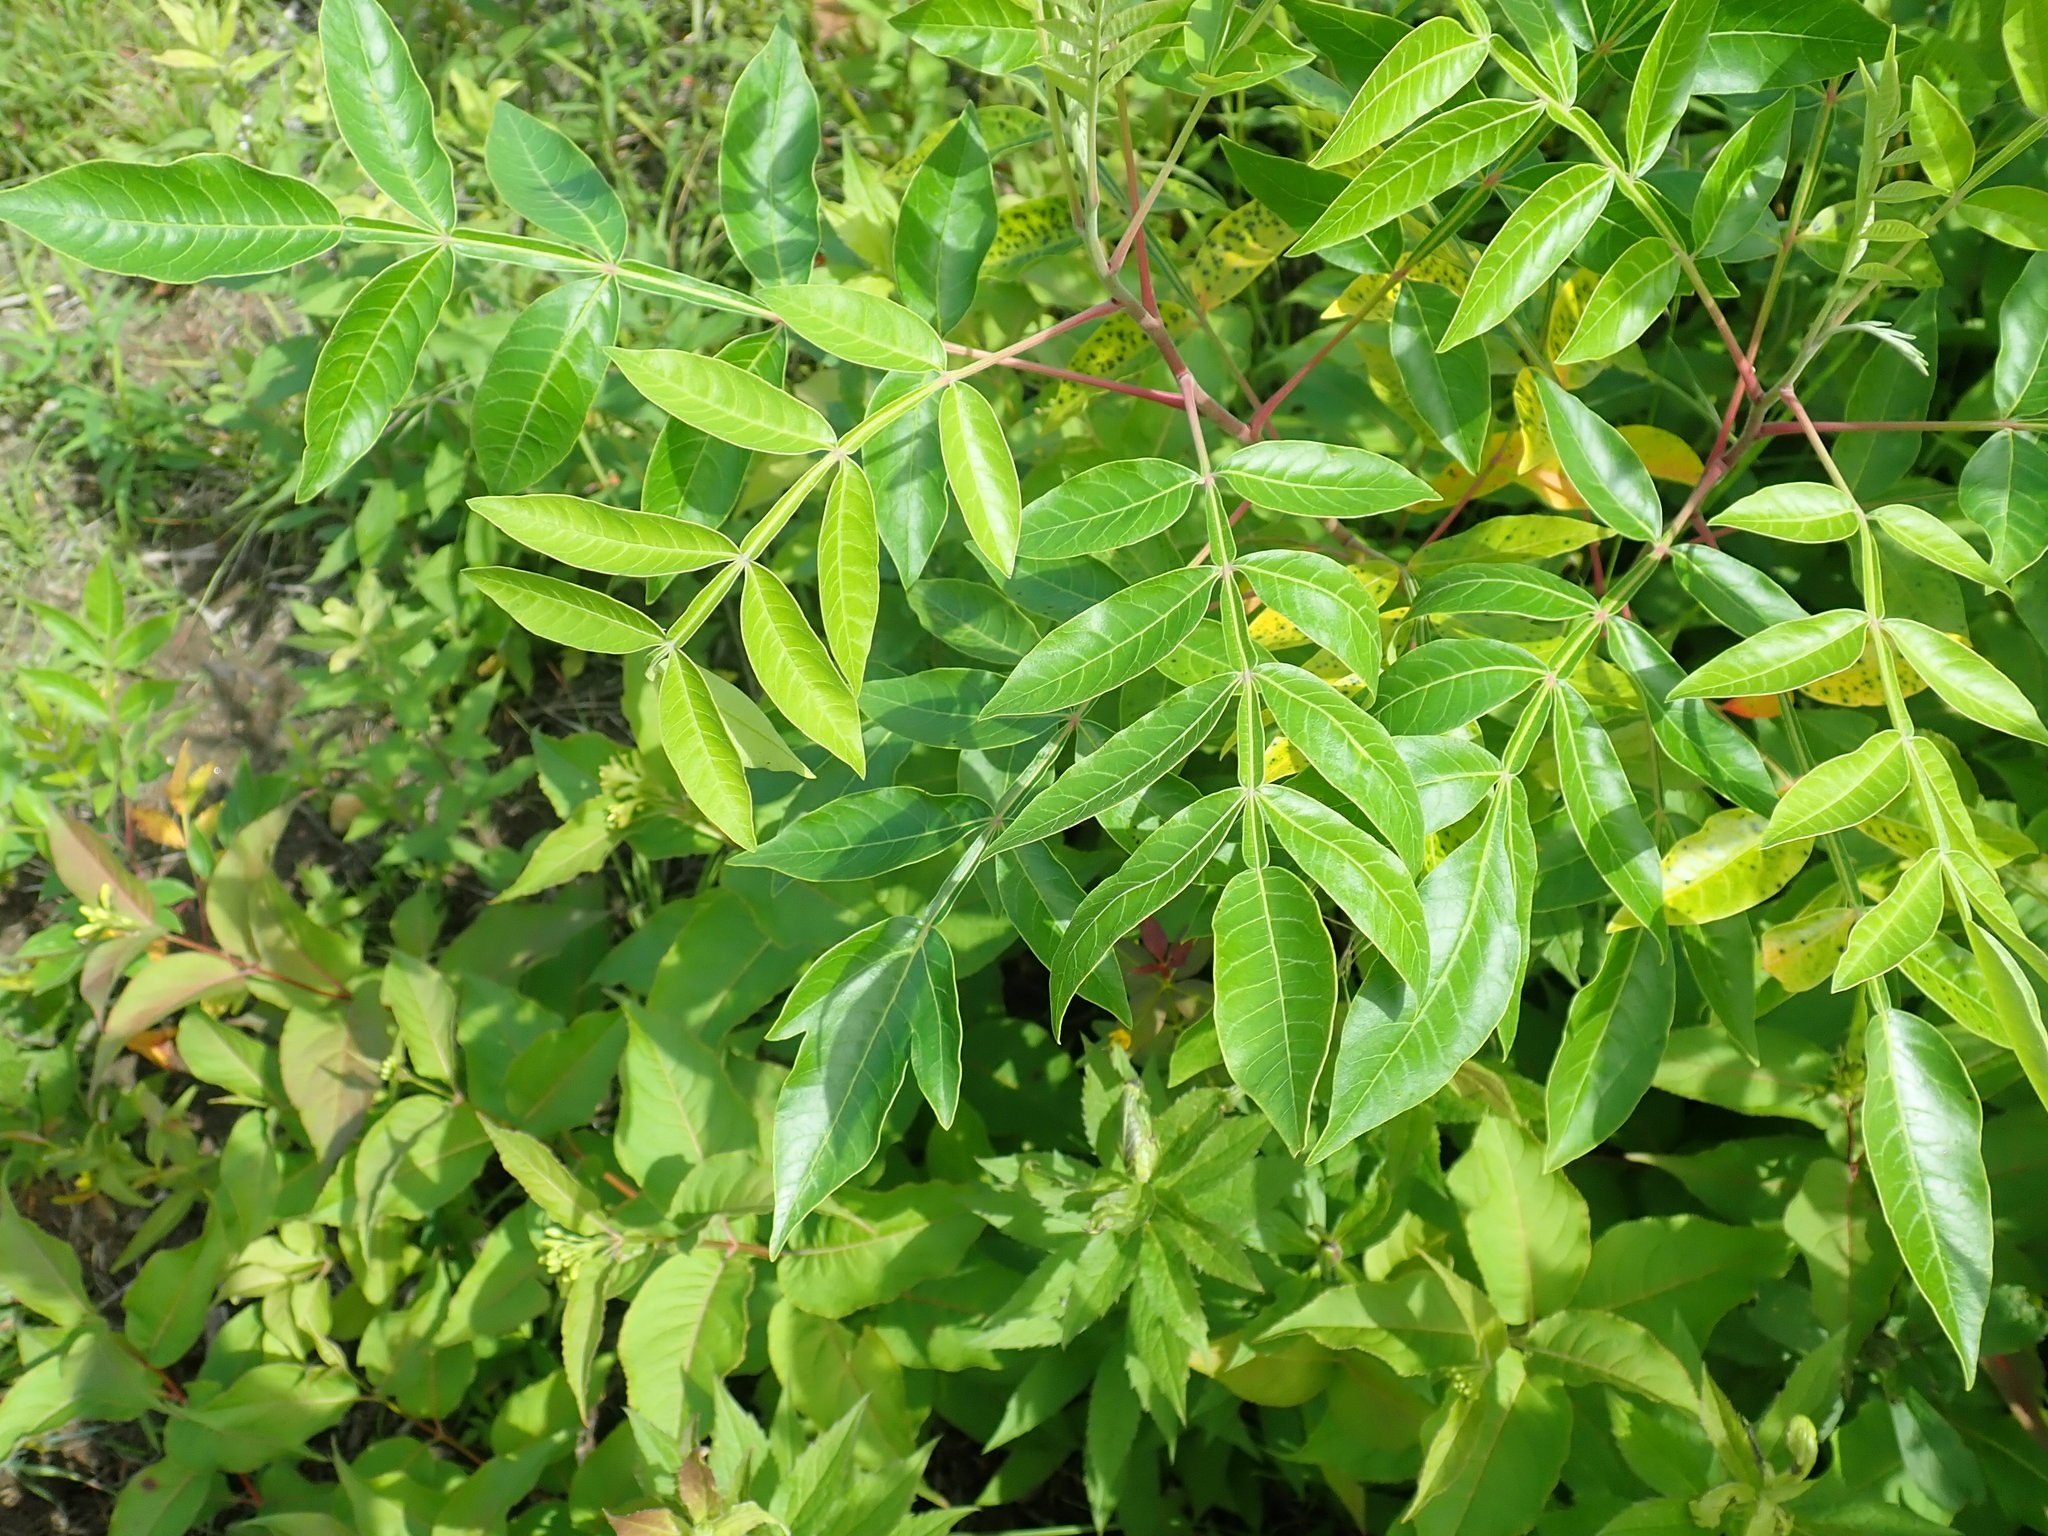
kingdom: Plantae
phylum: Tracheophyta
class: Magnoliopsida
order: Sapindales
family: Anacardiaceae
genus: Rhus
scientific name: Rhus copallina
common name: Shining sumac
